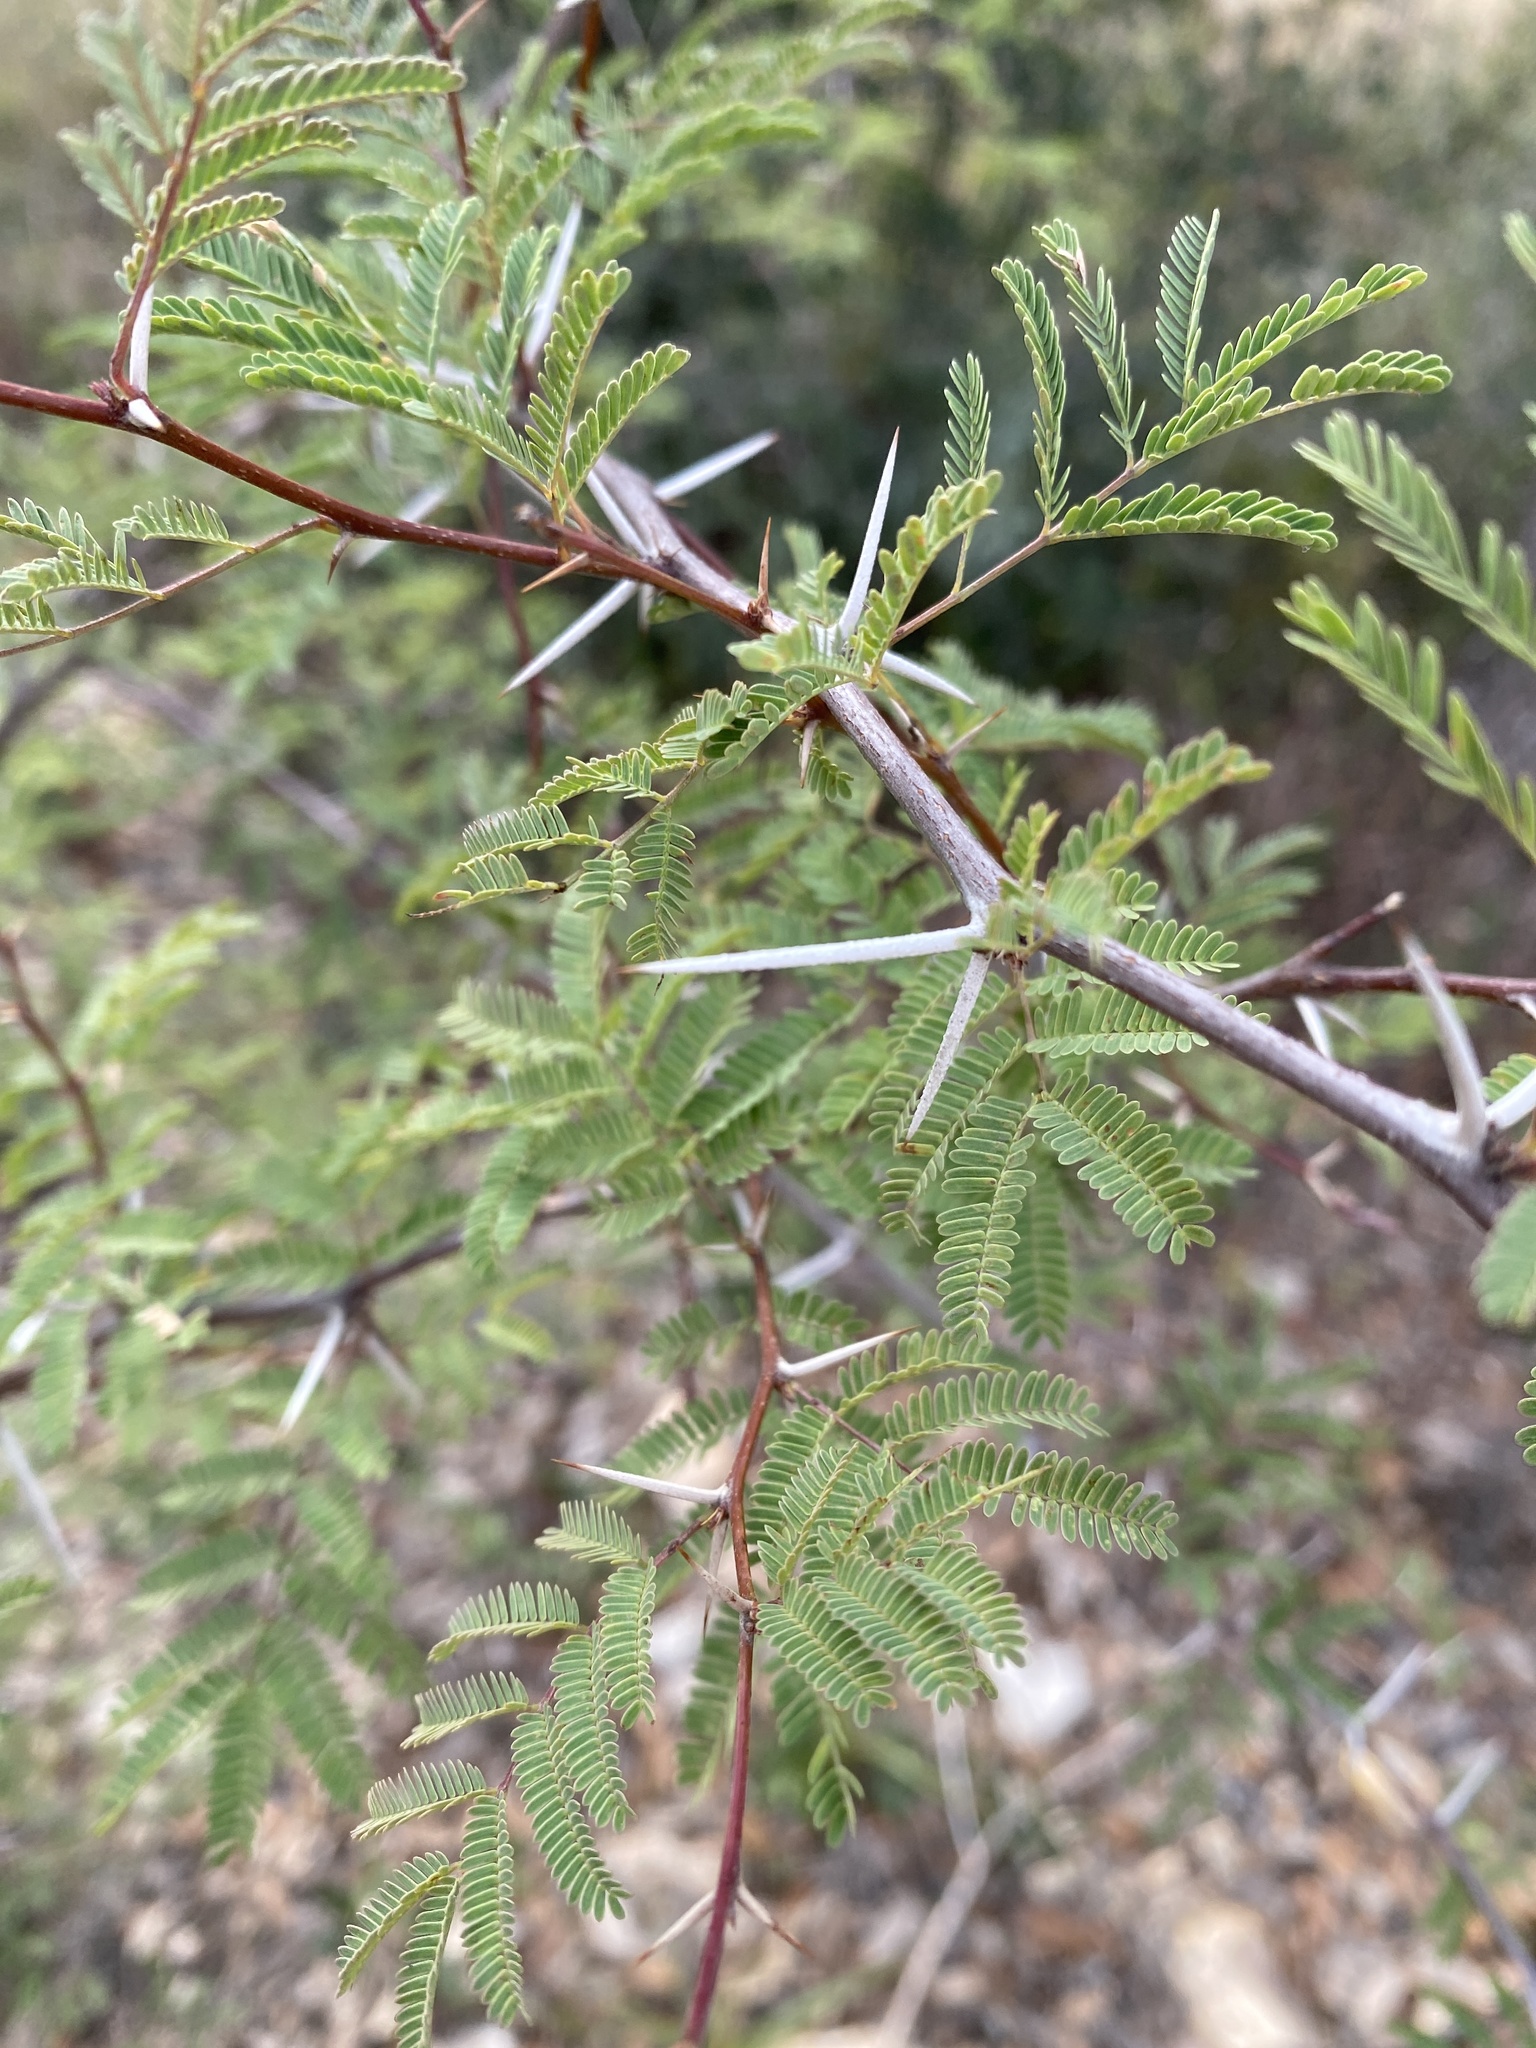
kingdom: Plantae
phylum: Tracheophyta
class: Magnoliopsida
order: Fabales
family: Fabaceae
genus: Vachellia
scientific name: Vachellia farnesiana
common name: Sweet acacia
